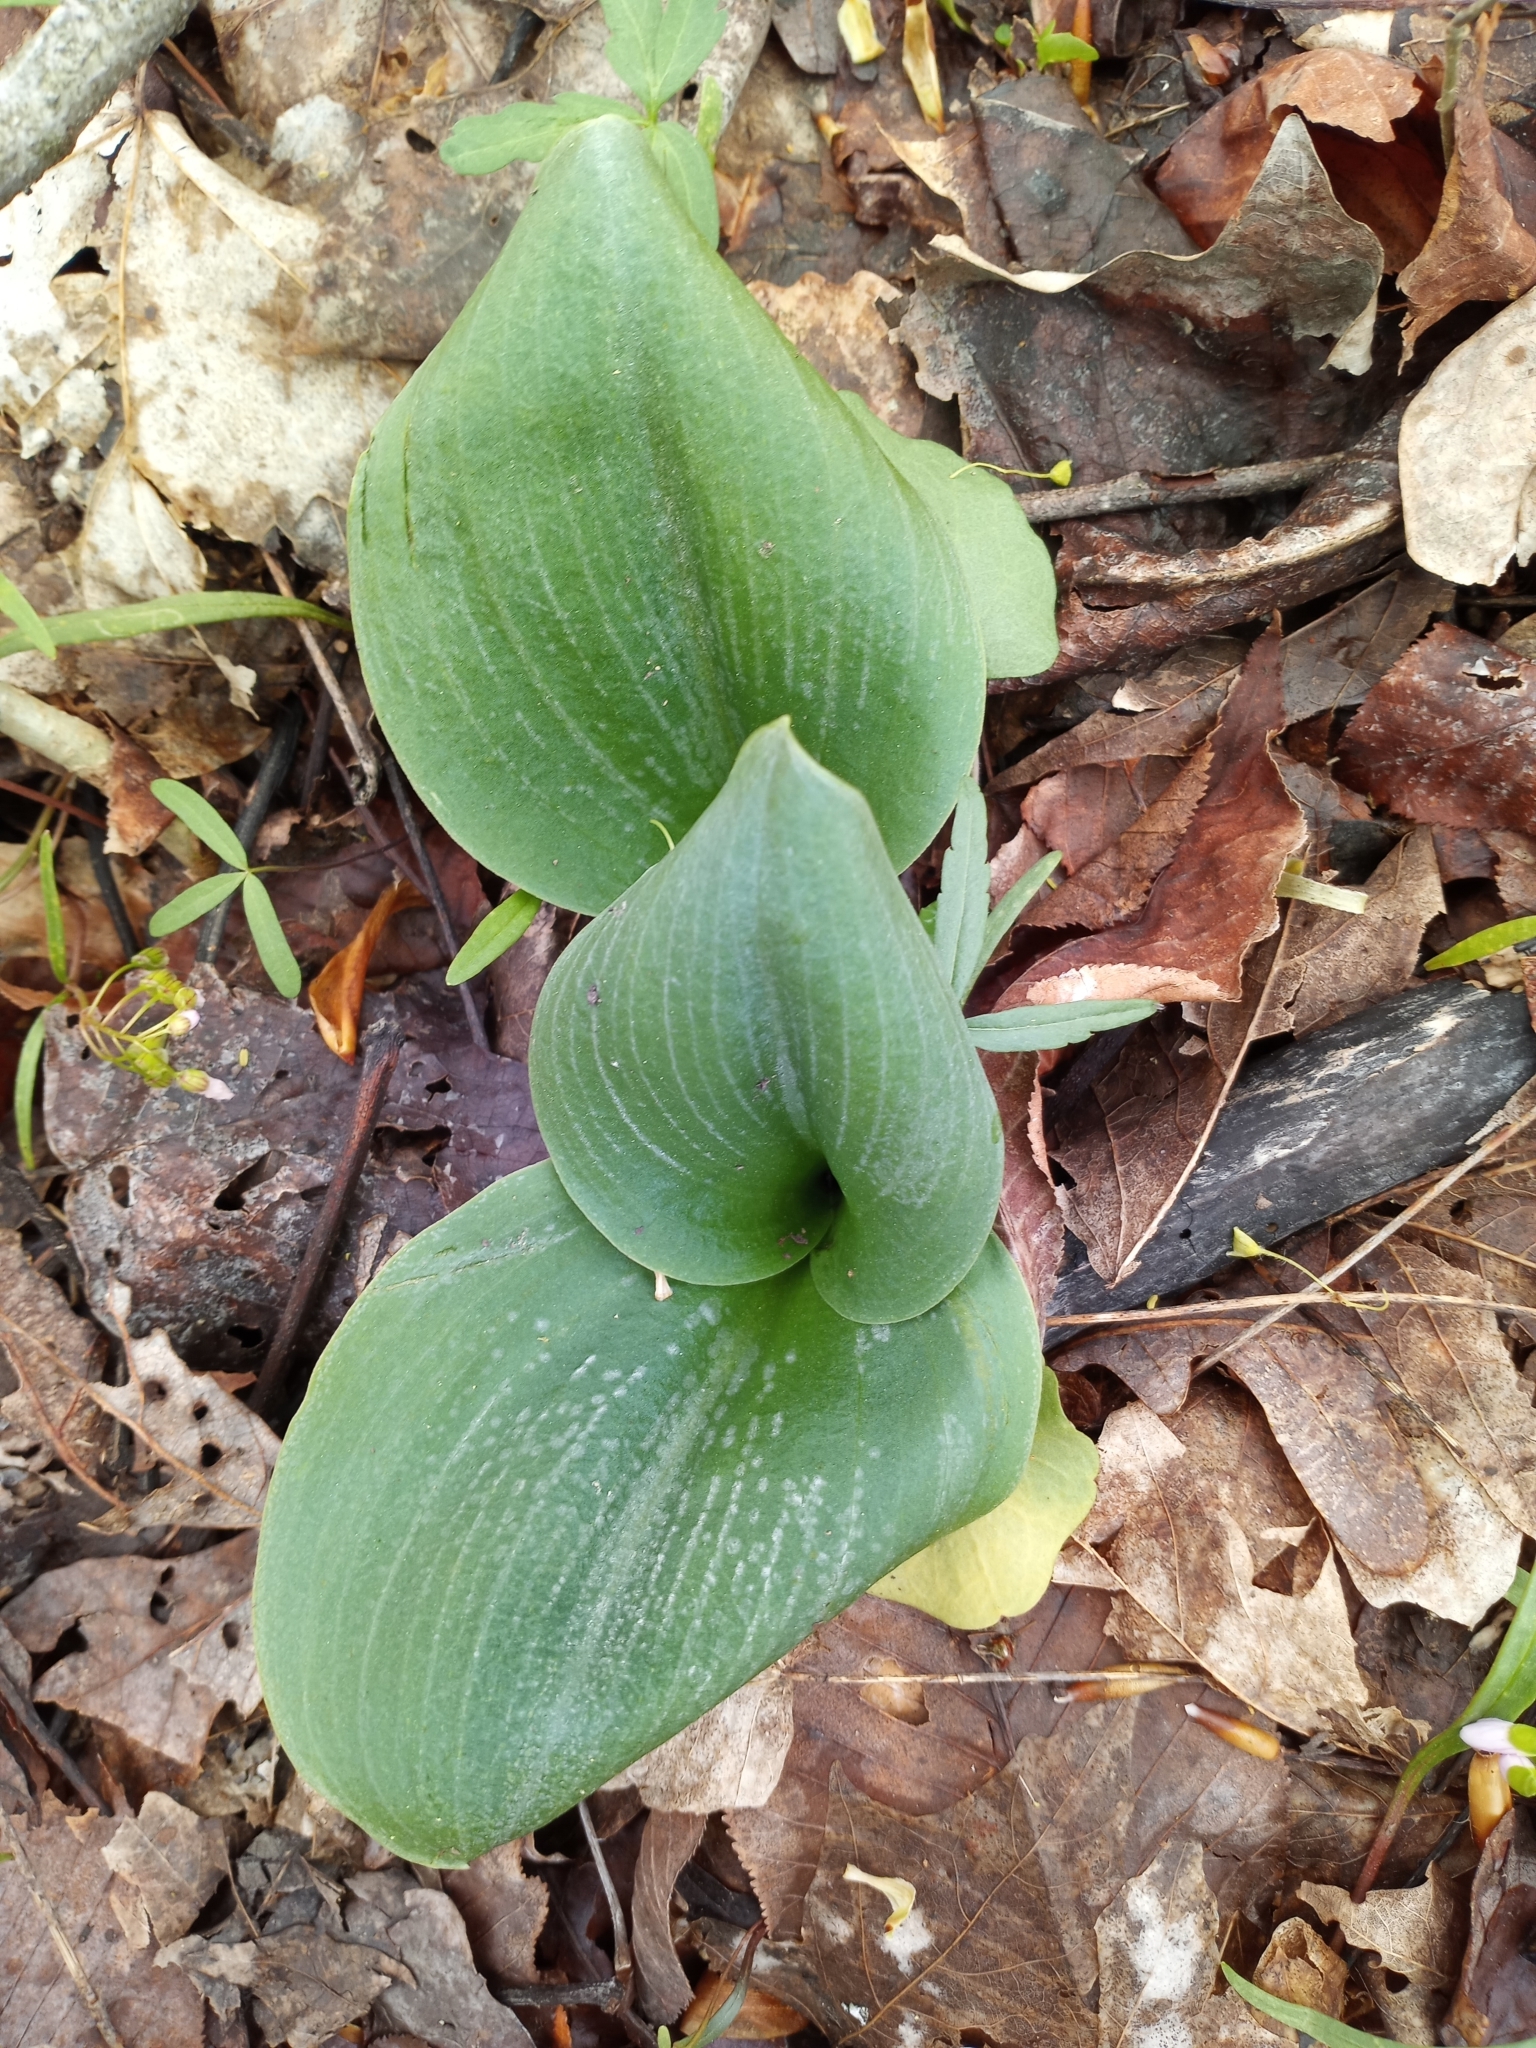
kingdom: Plantae
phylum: Tracheophyta
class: Liliopsida
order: Asparagales
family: Orchidaceae
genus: Galearis
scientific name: Galearis spectabilis
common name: Purple-hooded orchis
